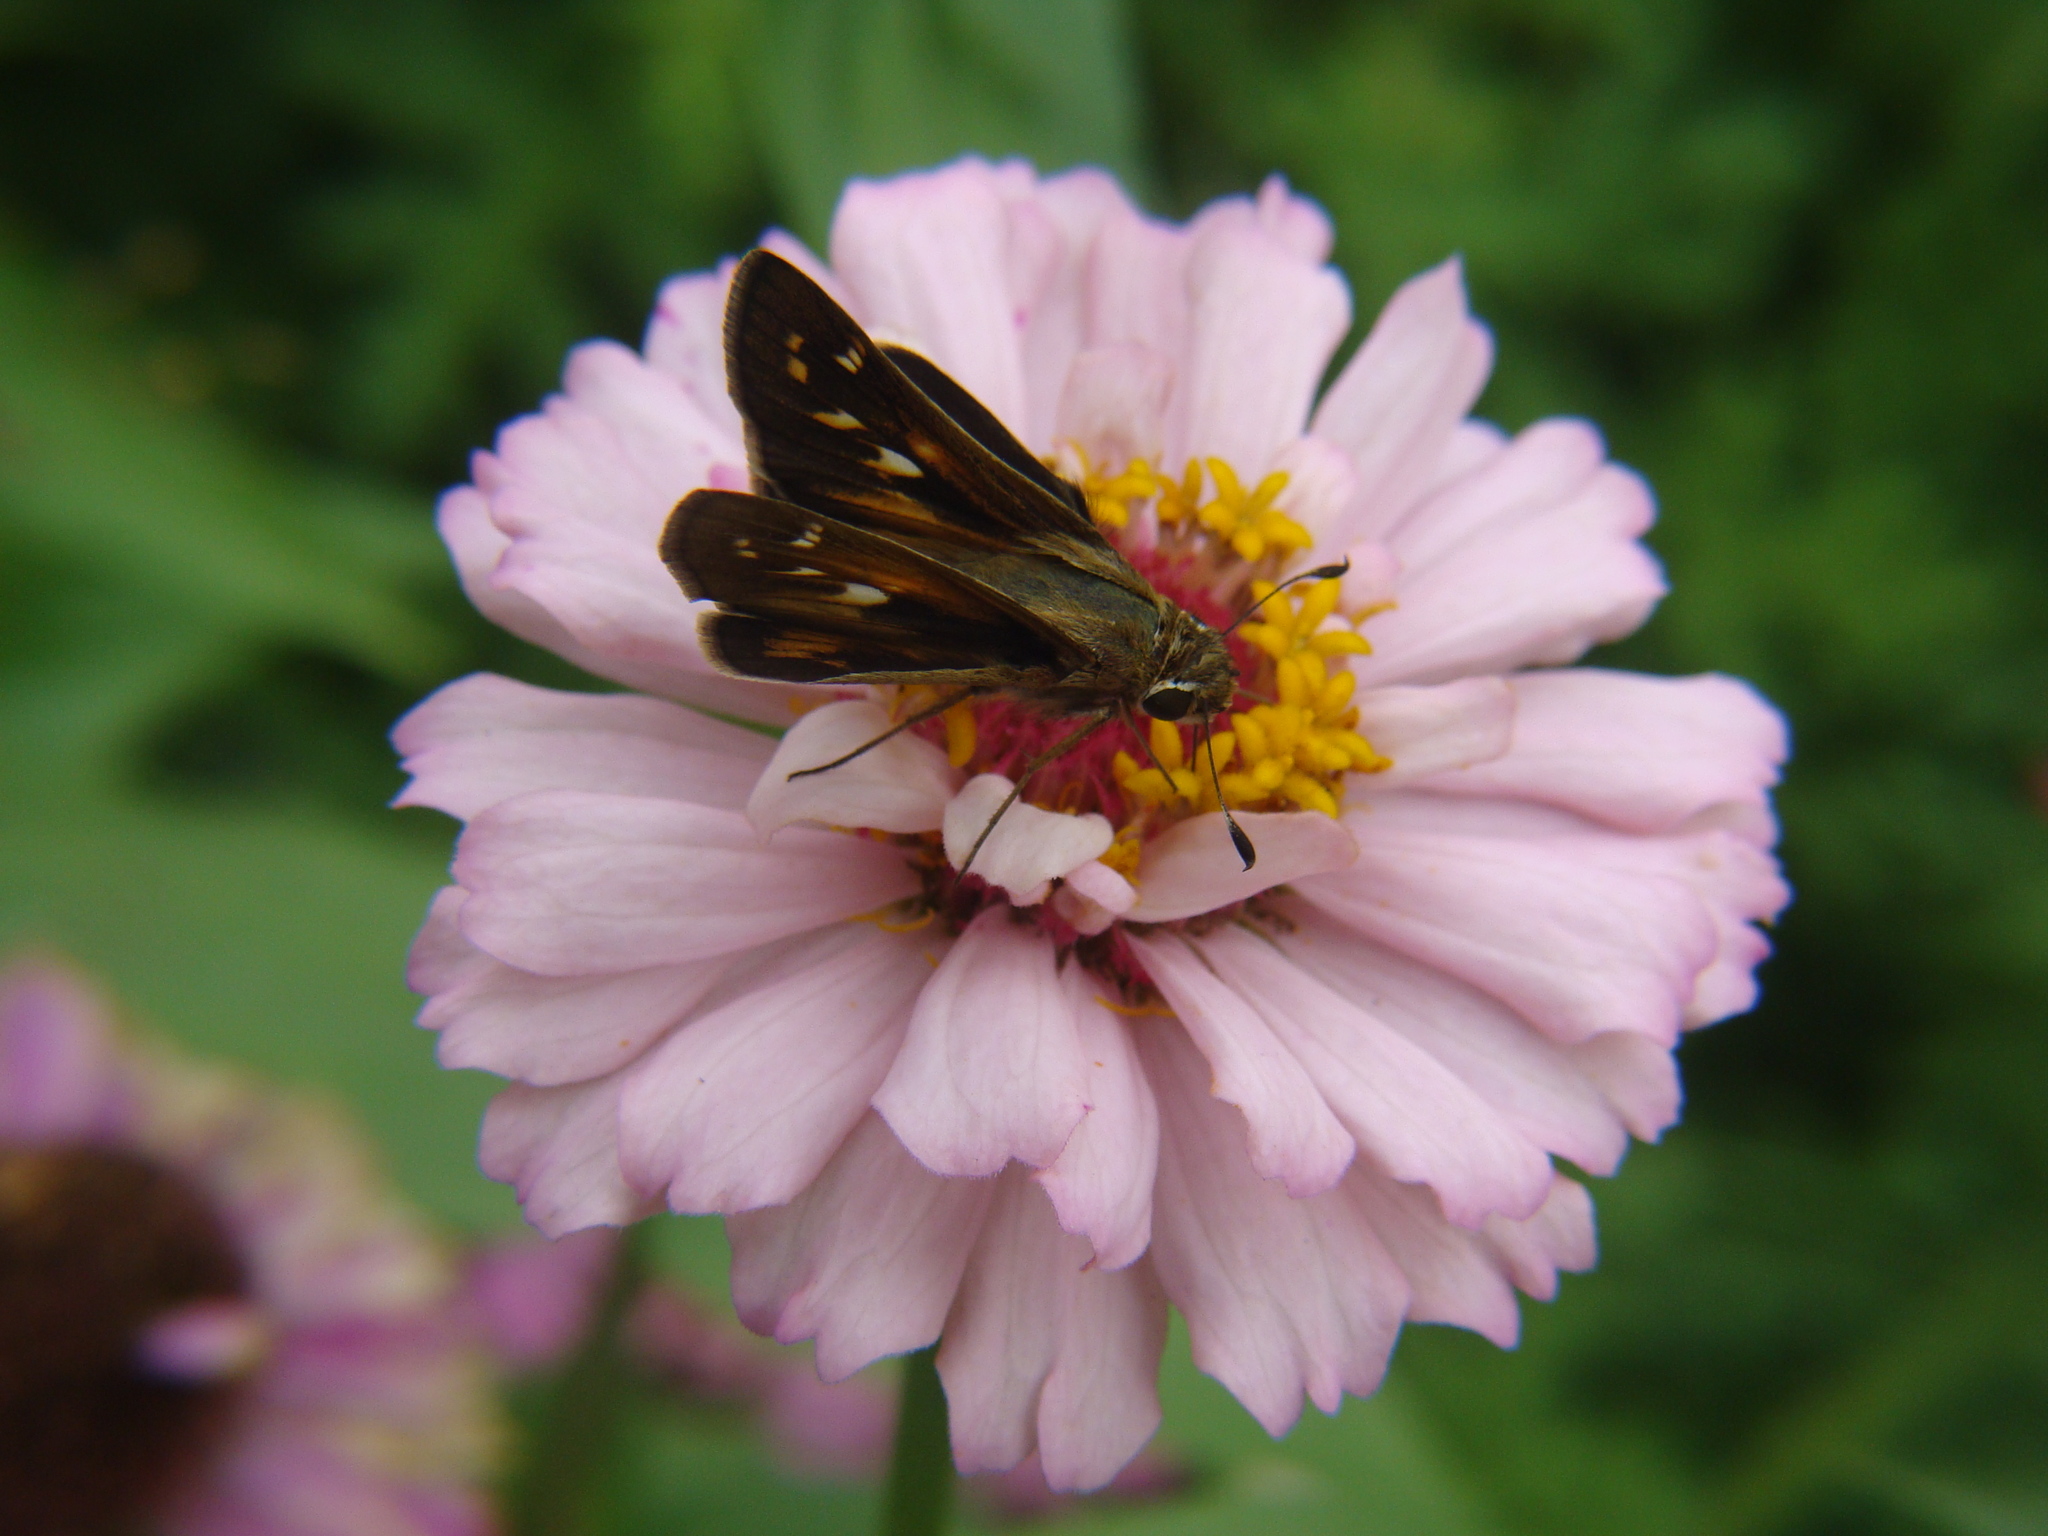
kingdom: Animalia
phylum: Arthropoda
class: Insecta
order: Lepidoptera
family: Hesperiidae
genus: Atalopedes
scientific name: Atalopedes
